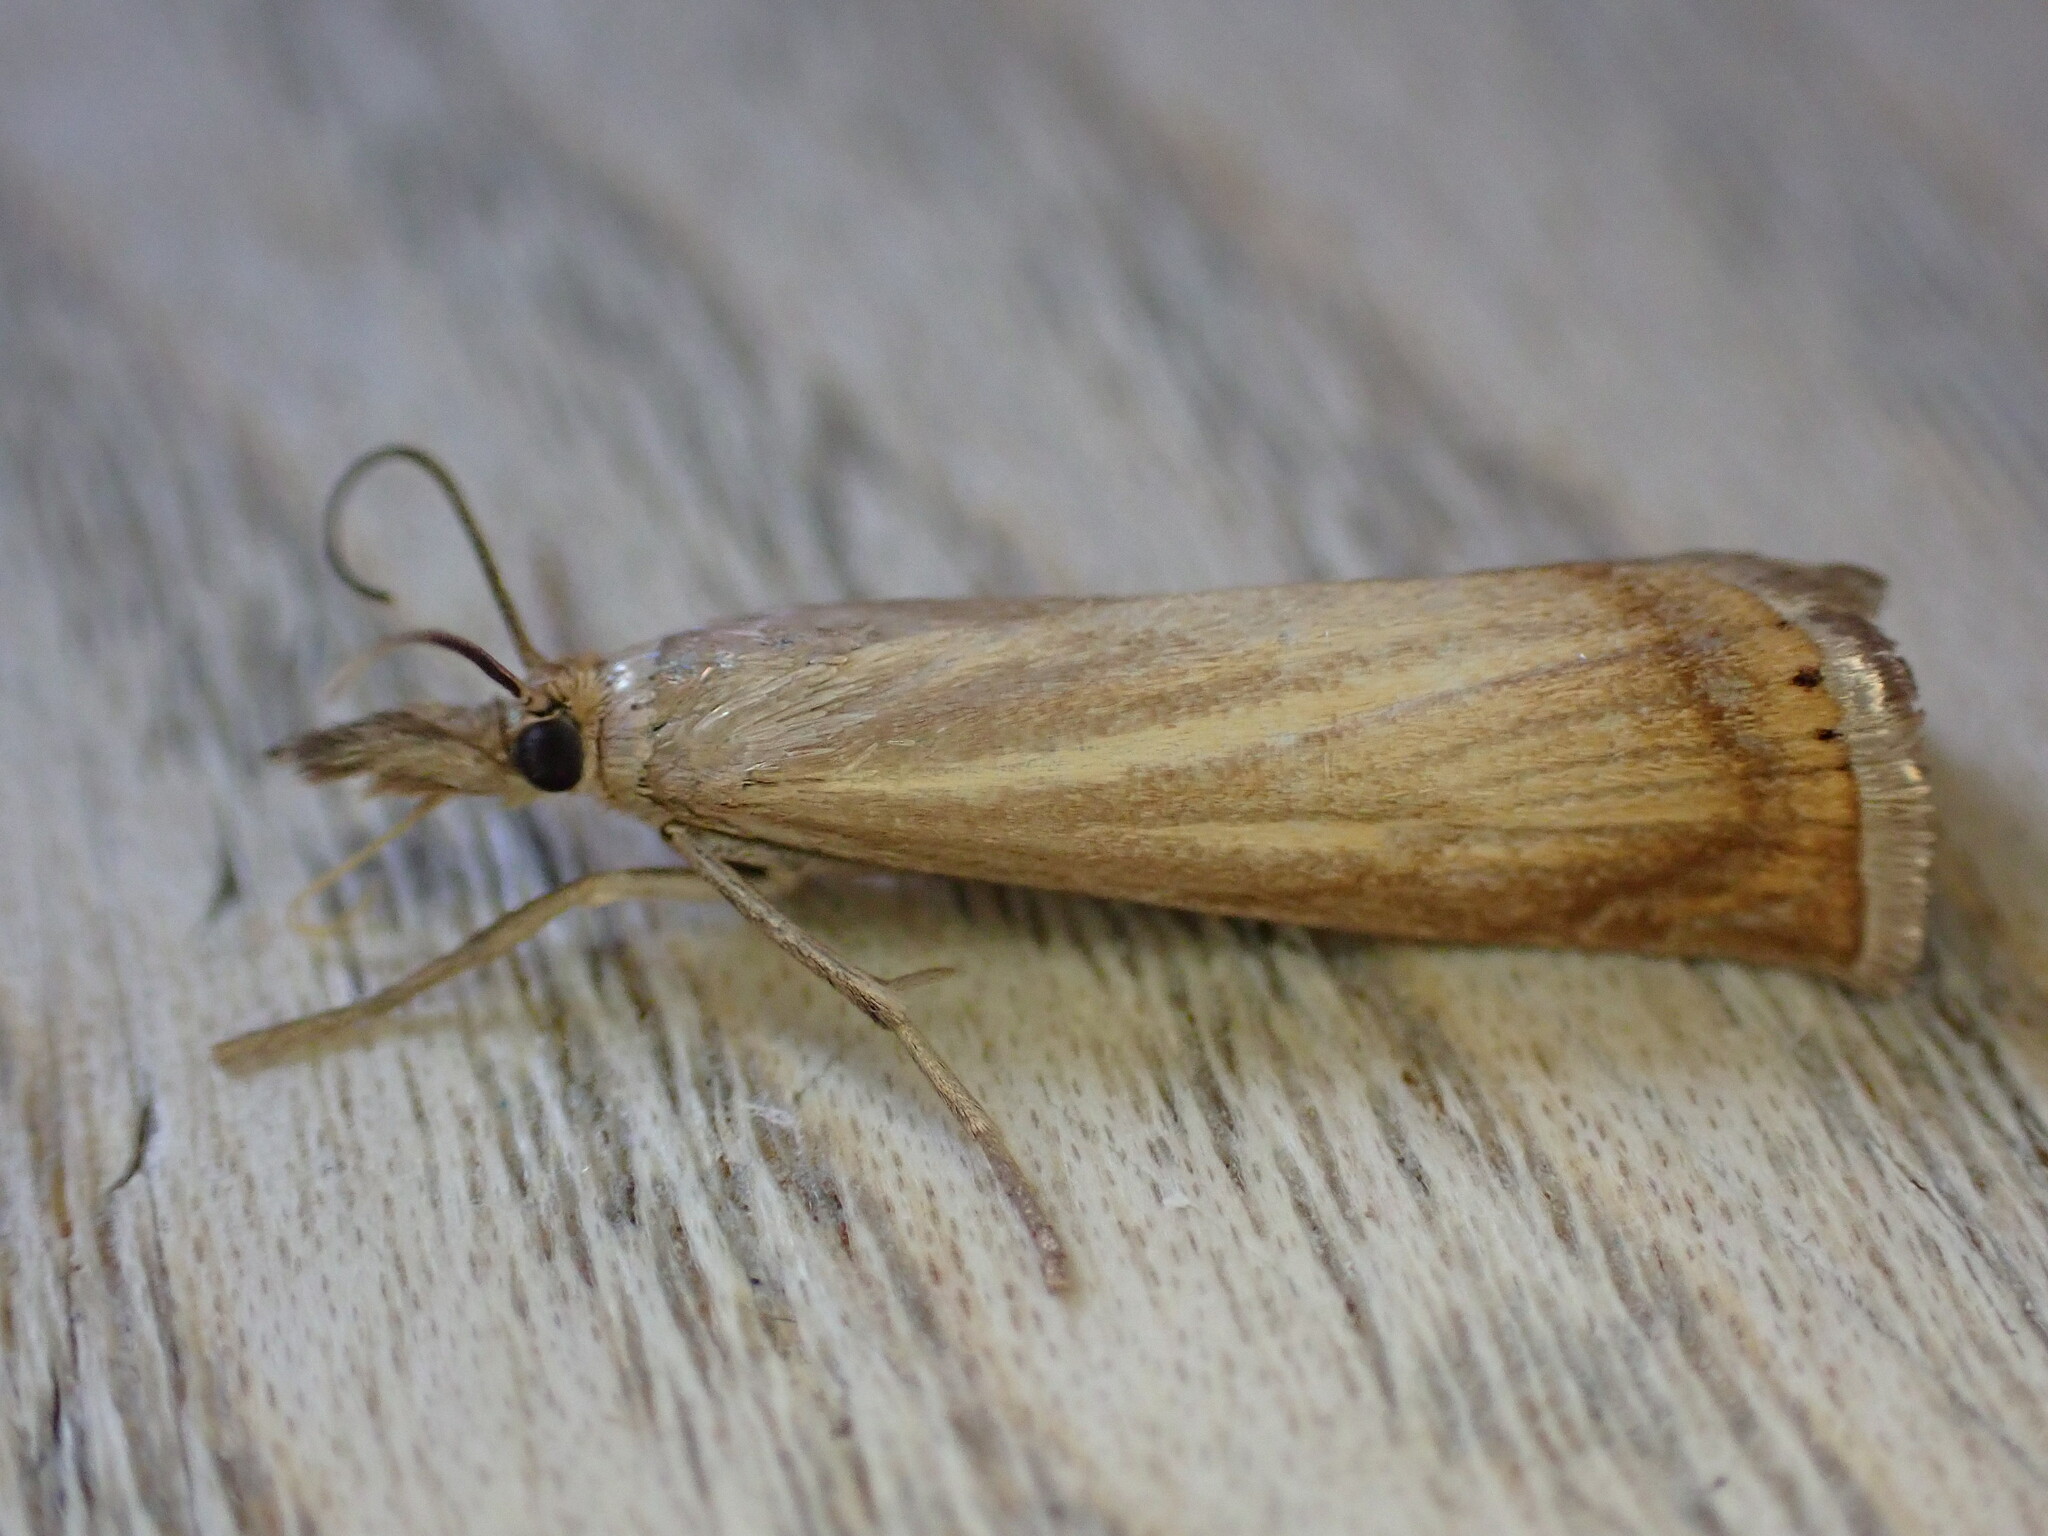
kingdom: Animalia
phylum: Arthropoda
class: Insecta
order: Lepidoptera
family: Crambidae
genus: Chrysoteuchia
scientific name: Chrysoteuchia culmella
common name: Garden grass-veneer
